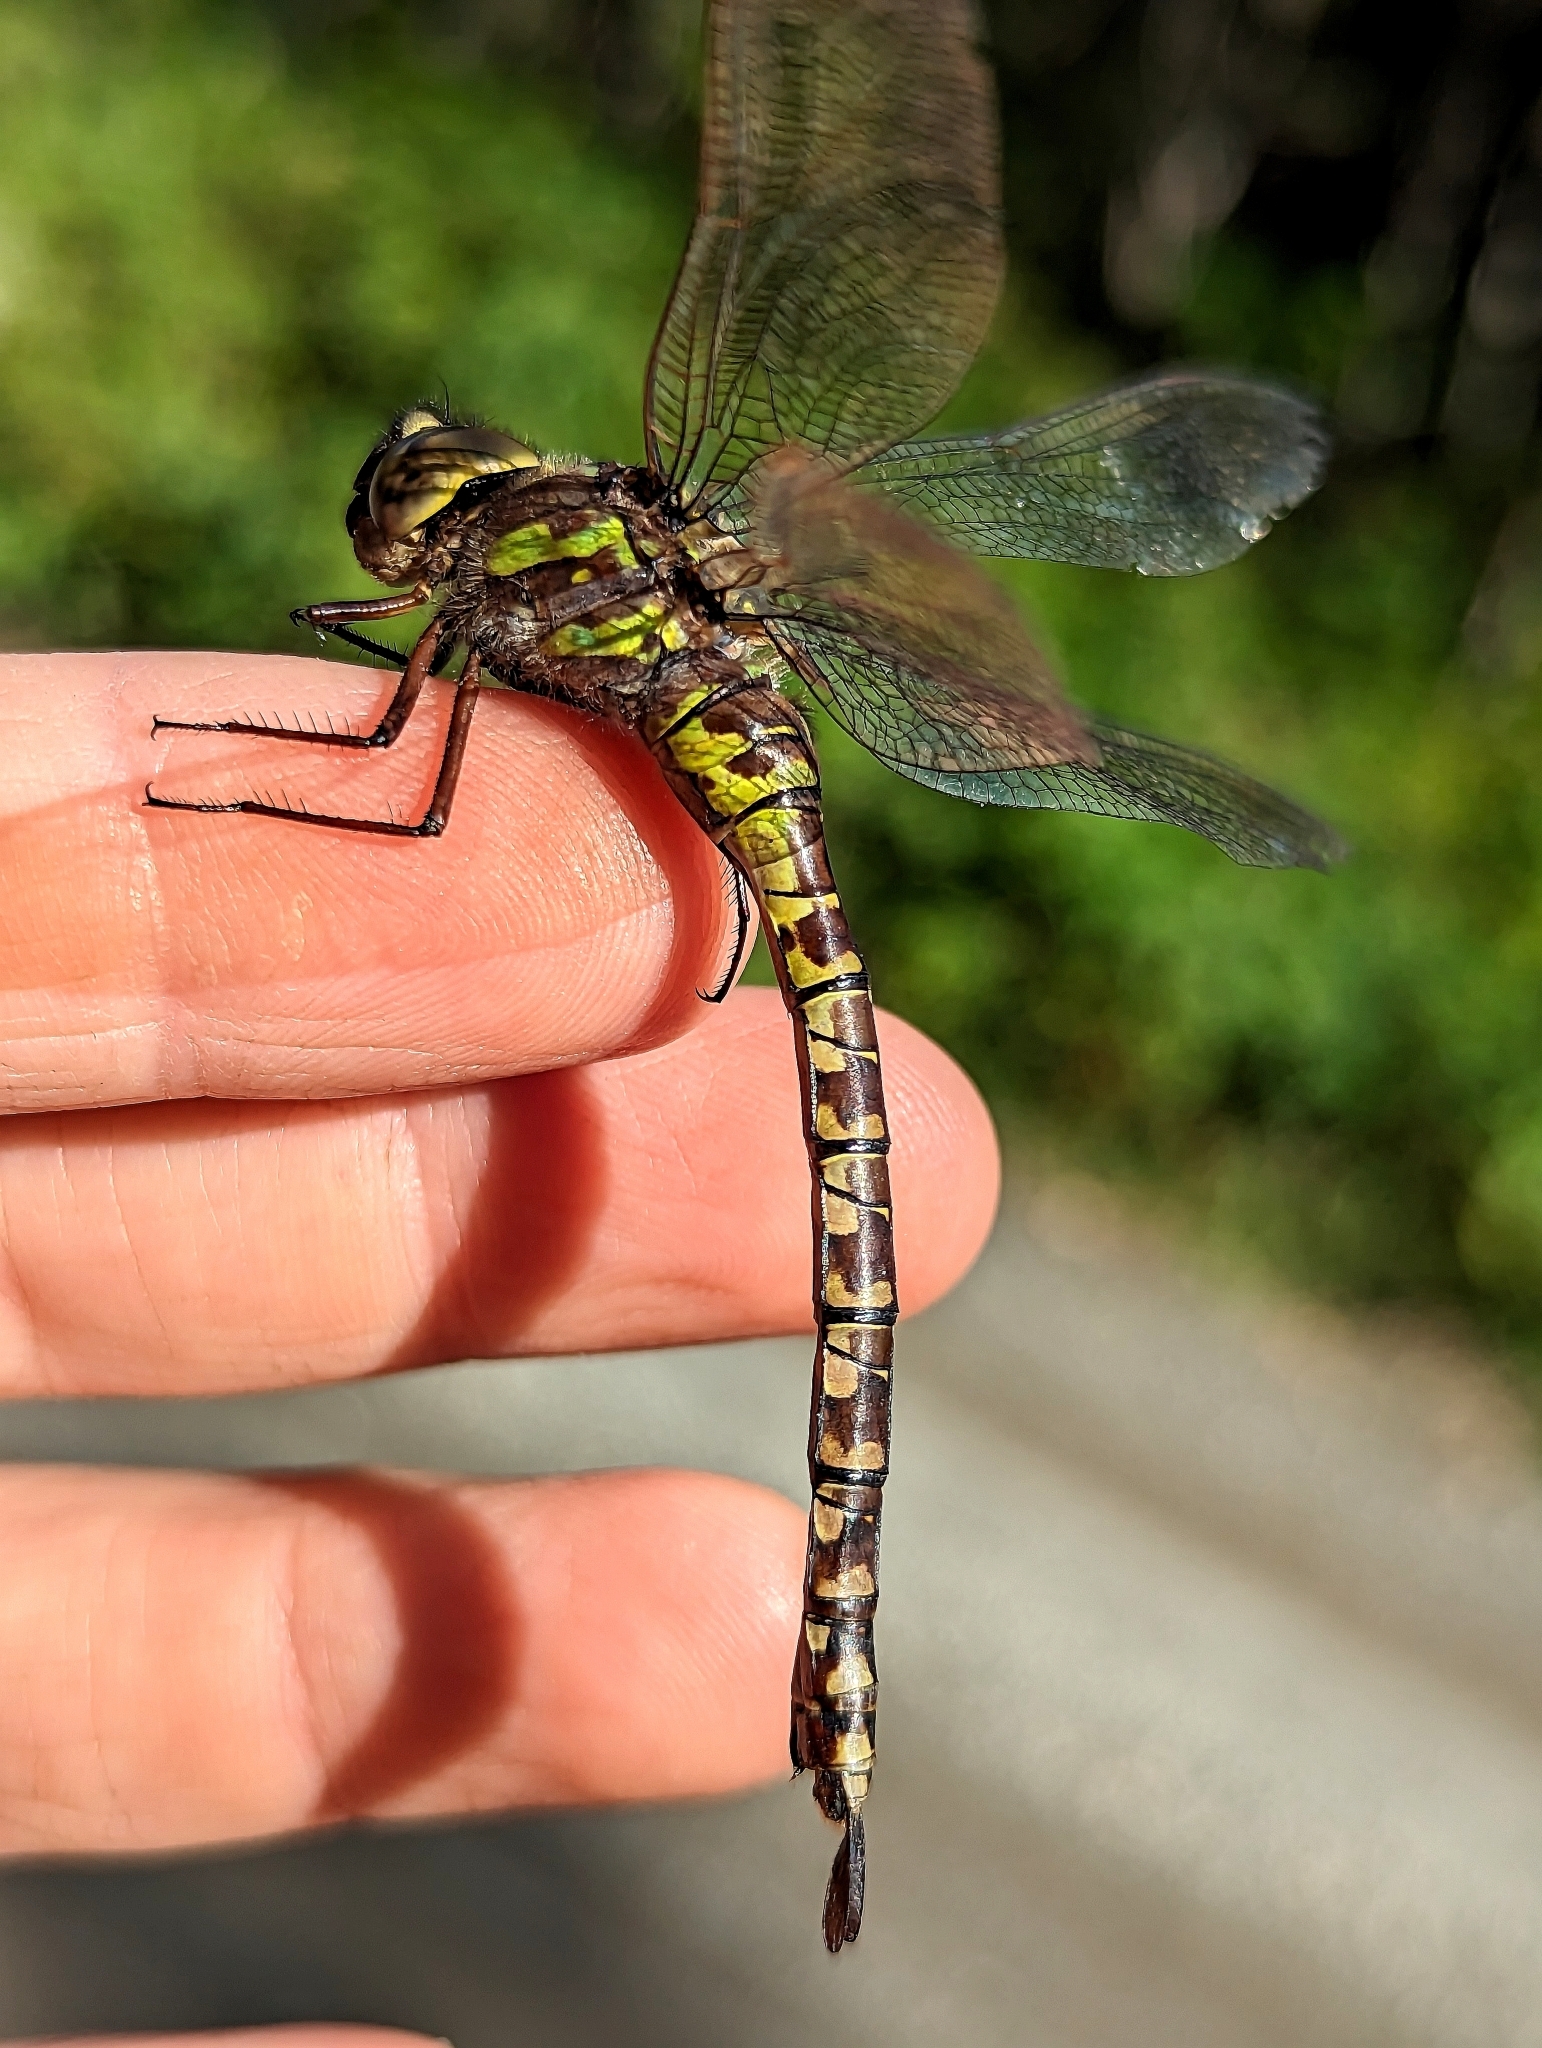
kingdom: Animalia
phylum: Arthropoda
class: Insecta
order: Odonata
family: Aeshnidae
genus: Aeshna
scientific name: Aeshna canadensis
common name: Canada darner
